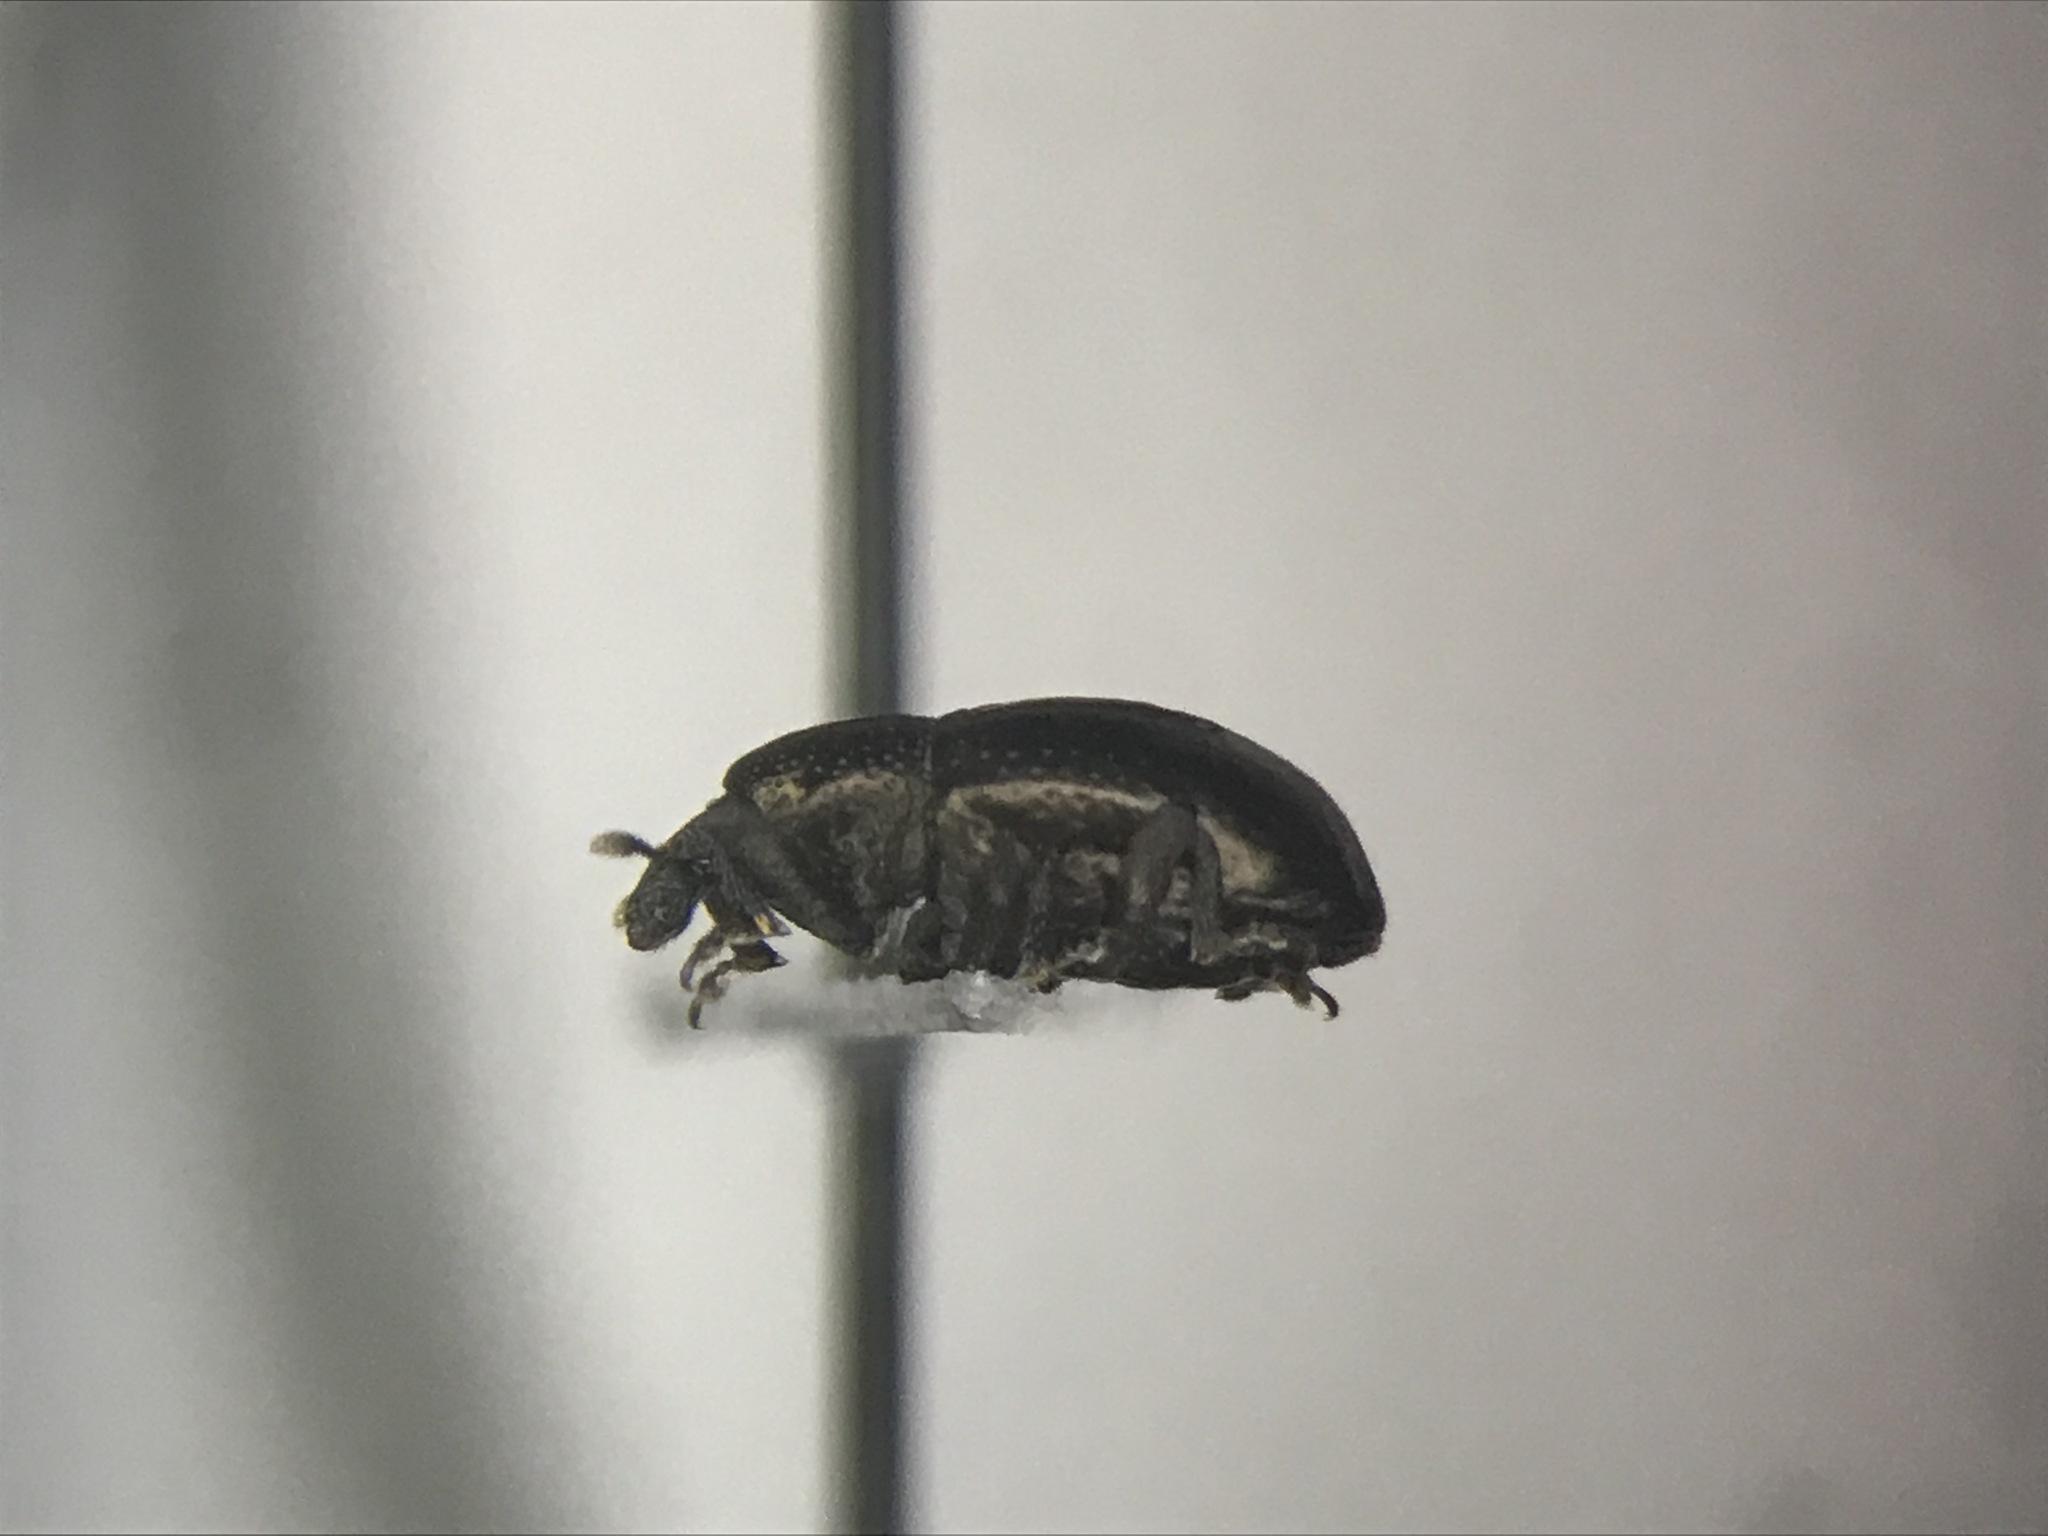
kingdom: Animalia
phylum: Arthropoda
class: Insecta
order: Coleoptera
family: Curculionidae
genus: Tyloderma
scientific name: Tyloderma nigrum
